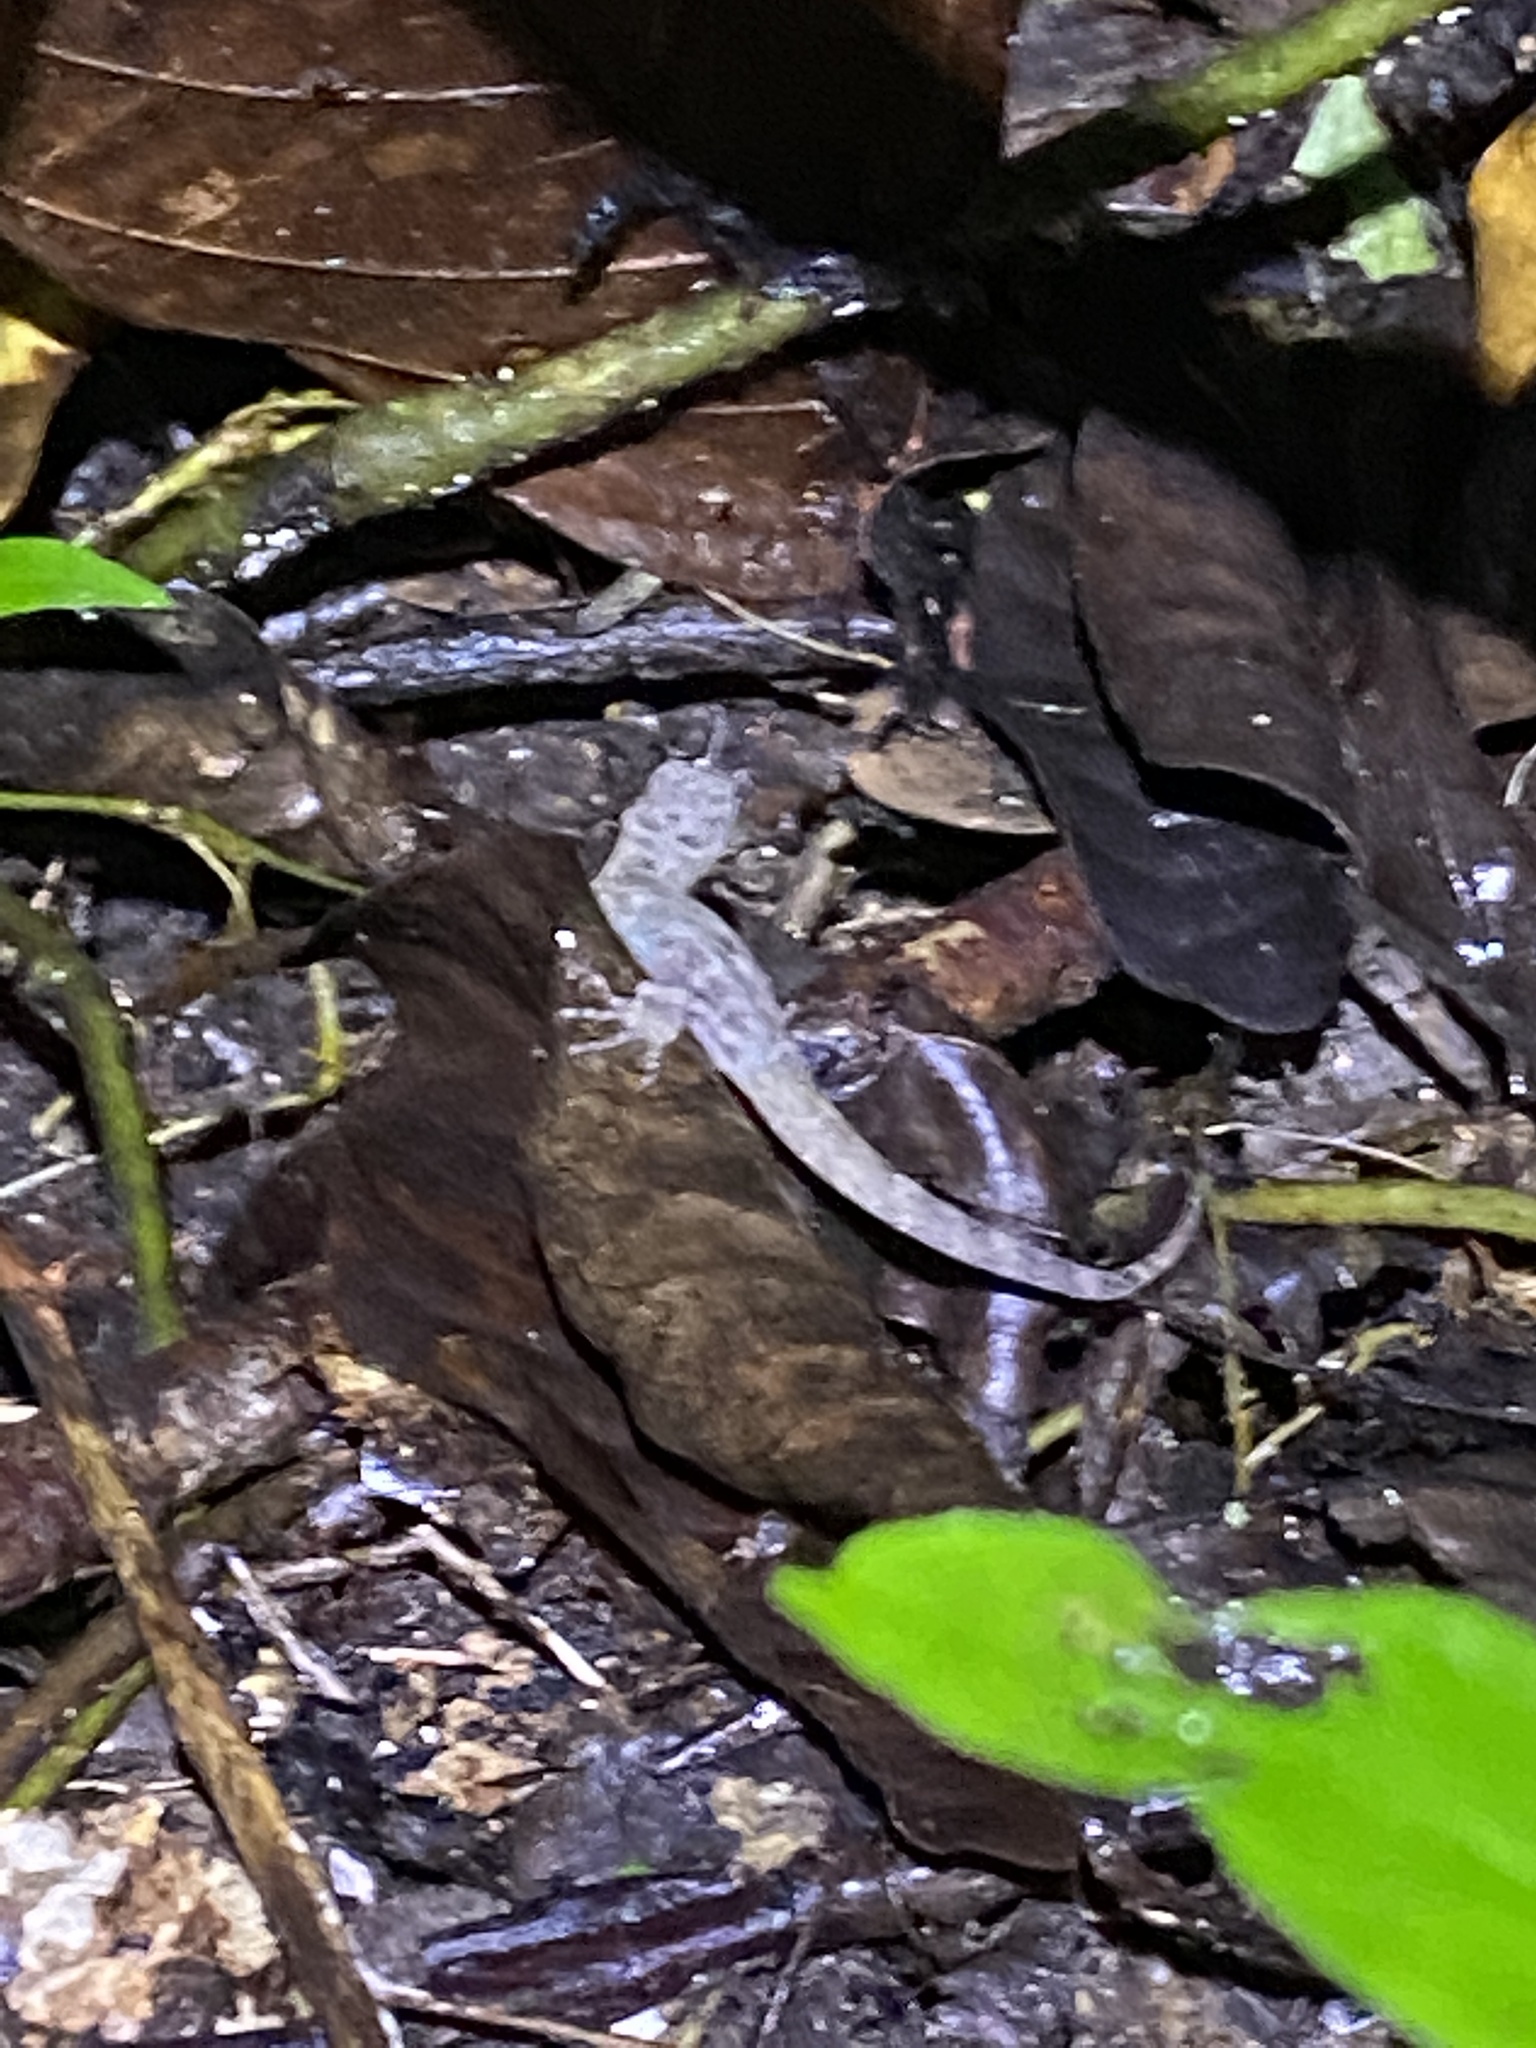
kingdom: Animalia
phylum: Chordata
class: Squamata
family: Sphaerodactylidae
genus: Gonatodes
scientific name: Gonatodes humeralis
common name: South american clawed gecko
